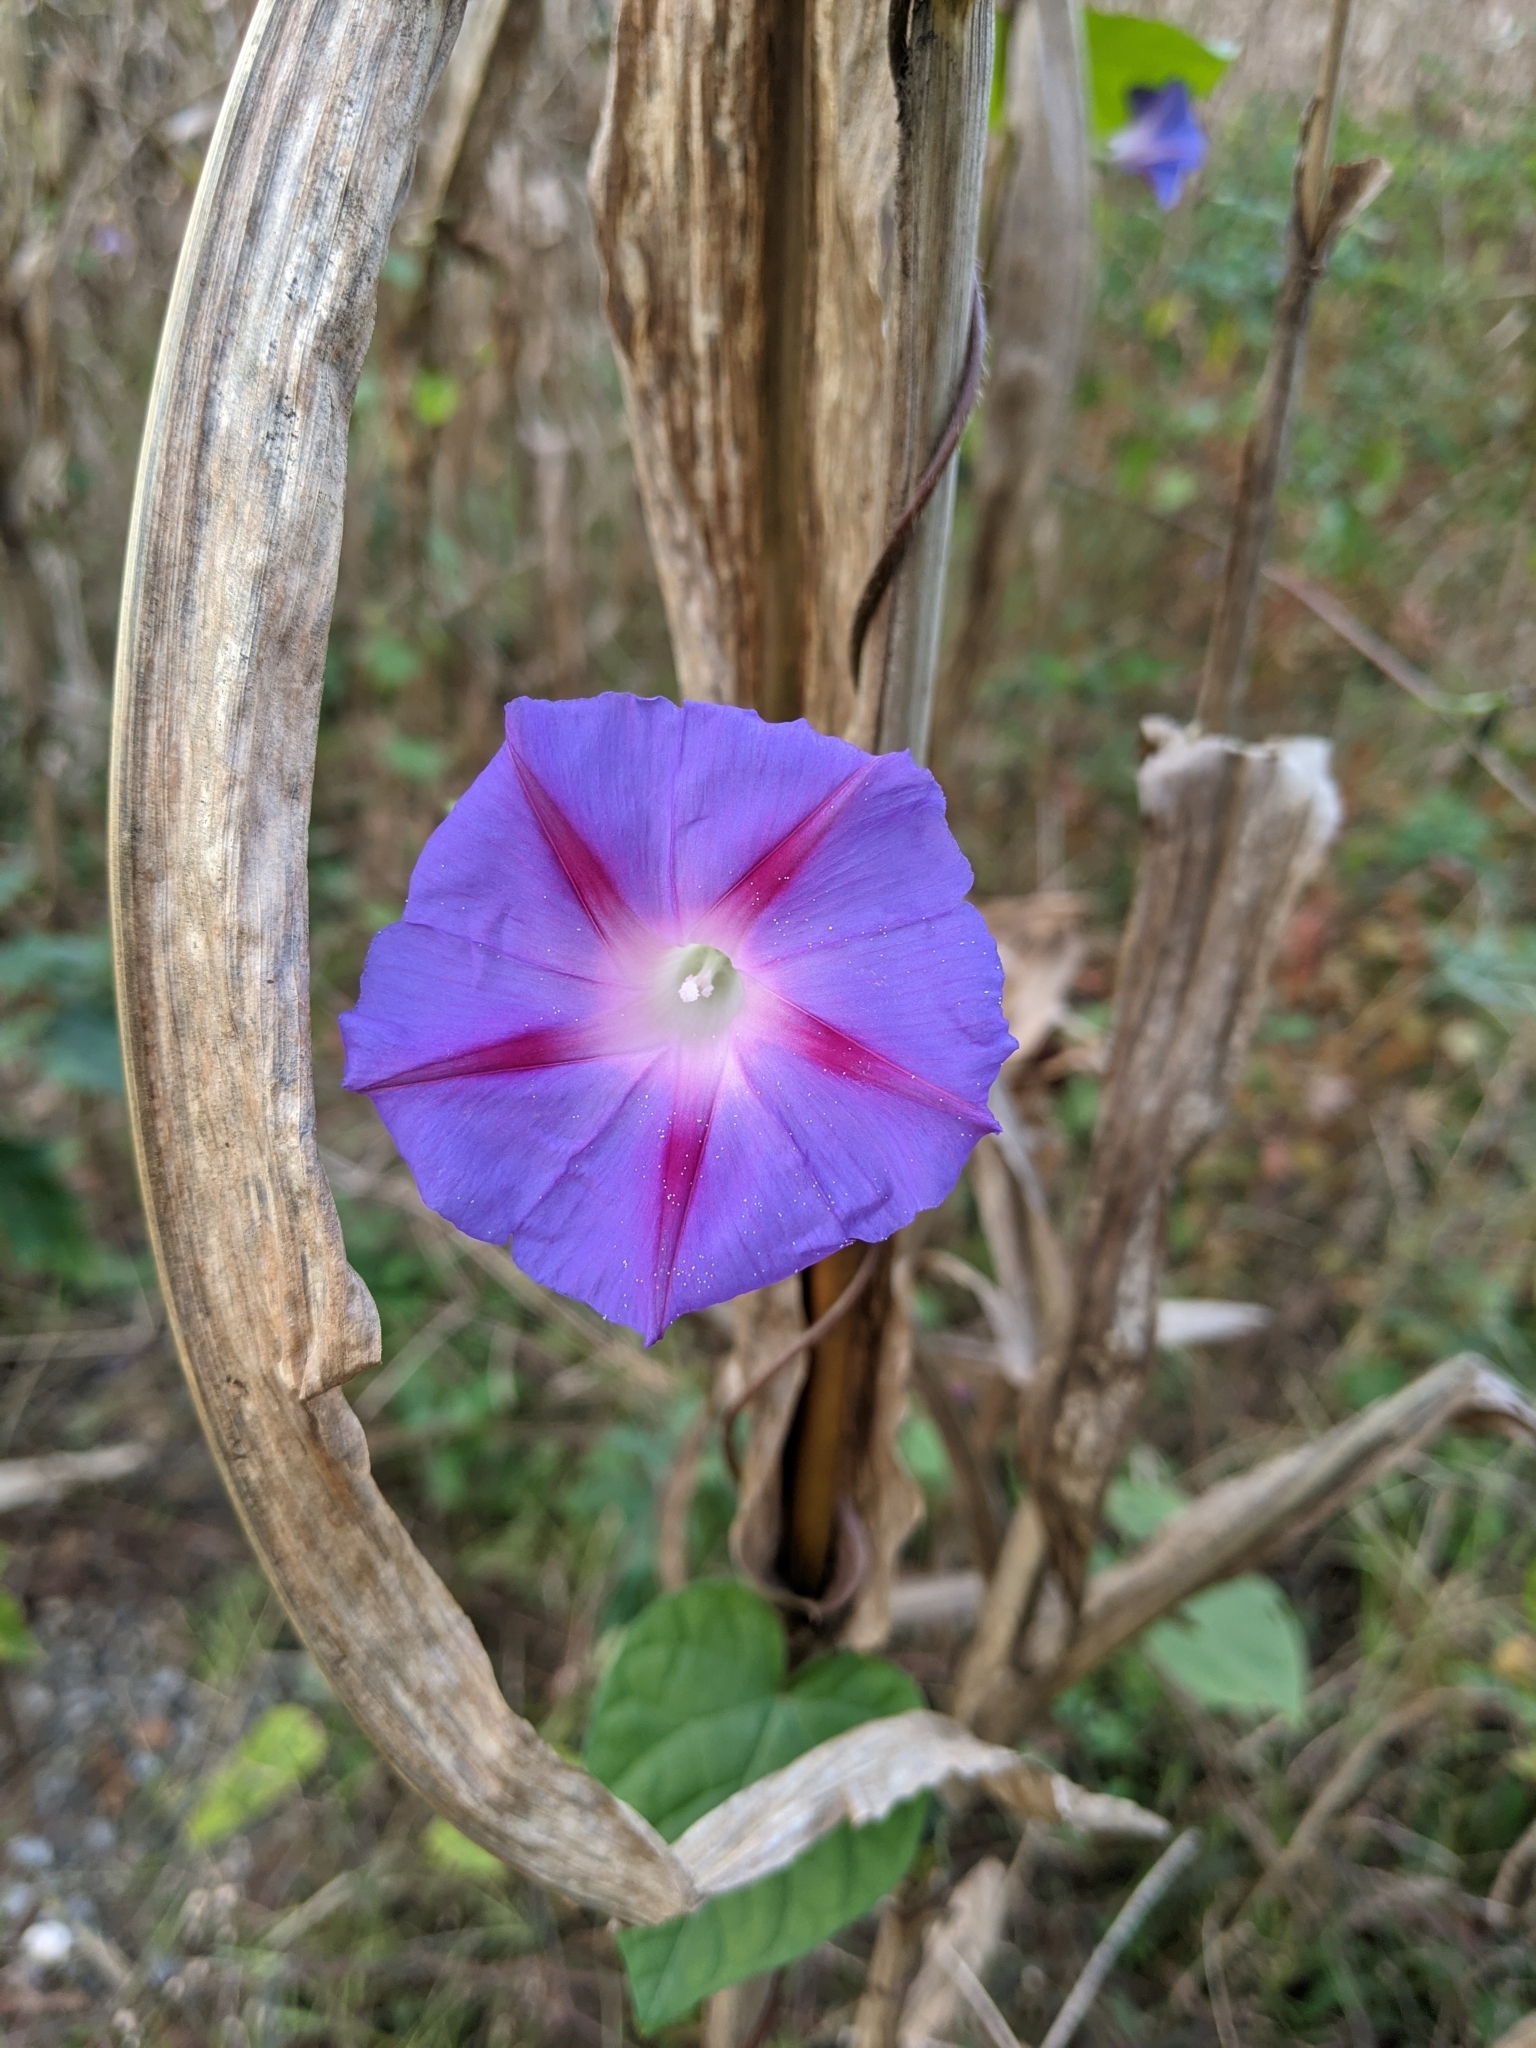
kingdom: Plantae
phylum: Tracheophyta
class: Magnoliopsida
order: Solanales
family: Convolvulaceae
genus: Ipomoea
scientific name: Ipomoea purpurea
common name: Common morning-glory
